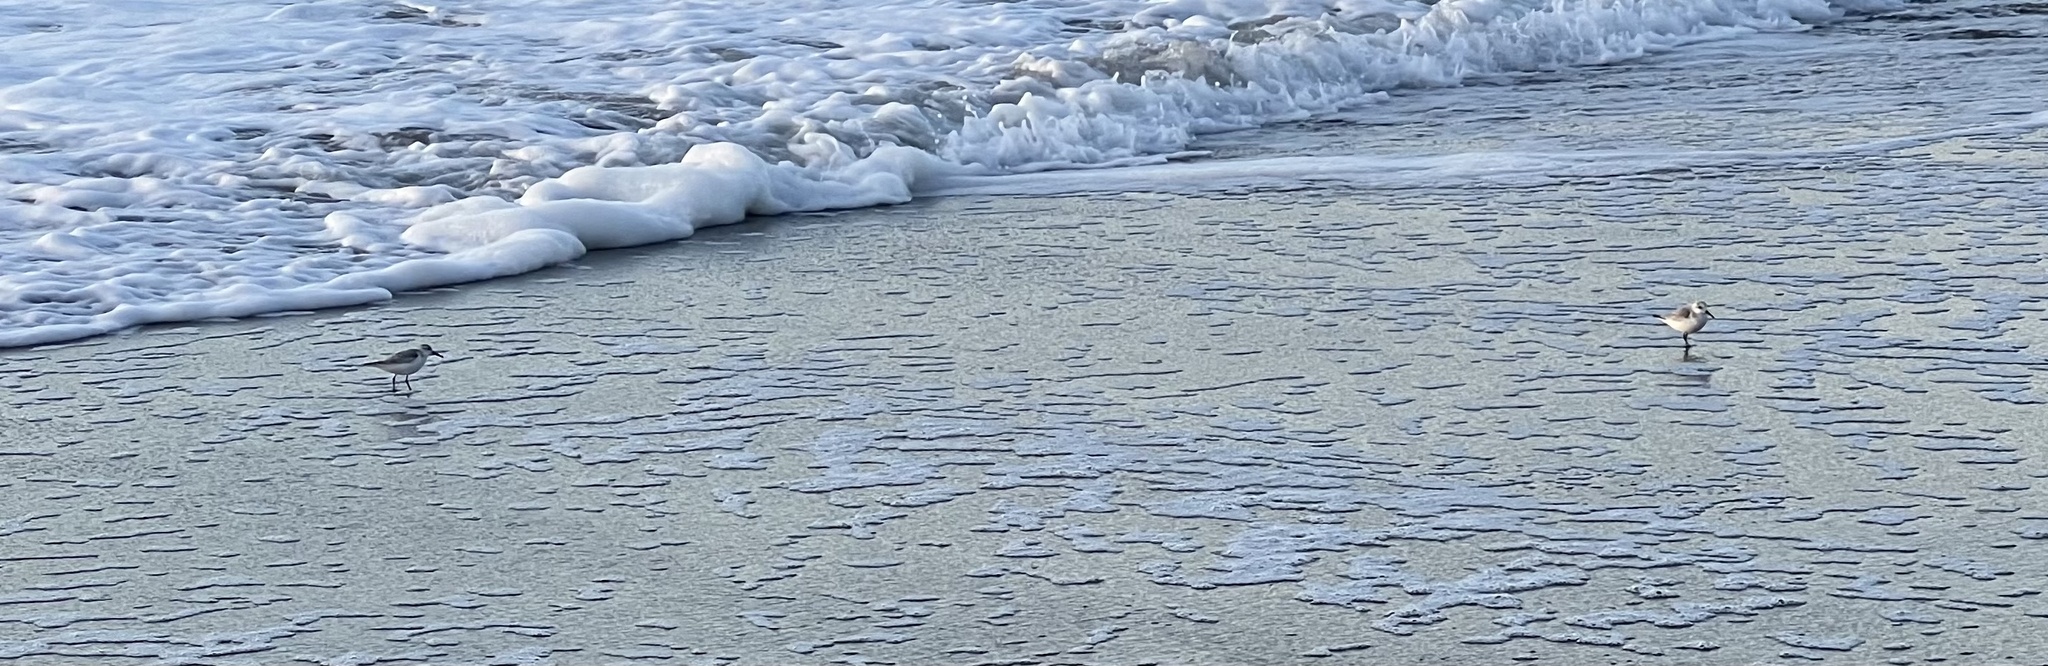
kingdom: Animalia
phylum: Chordata
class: Aves
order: Charadriiformes
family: Scolopacidae
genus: Calidris
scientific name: Calidris alba
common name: Sanderling
